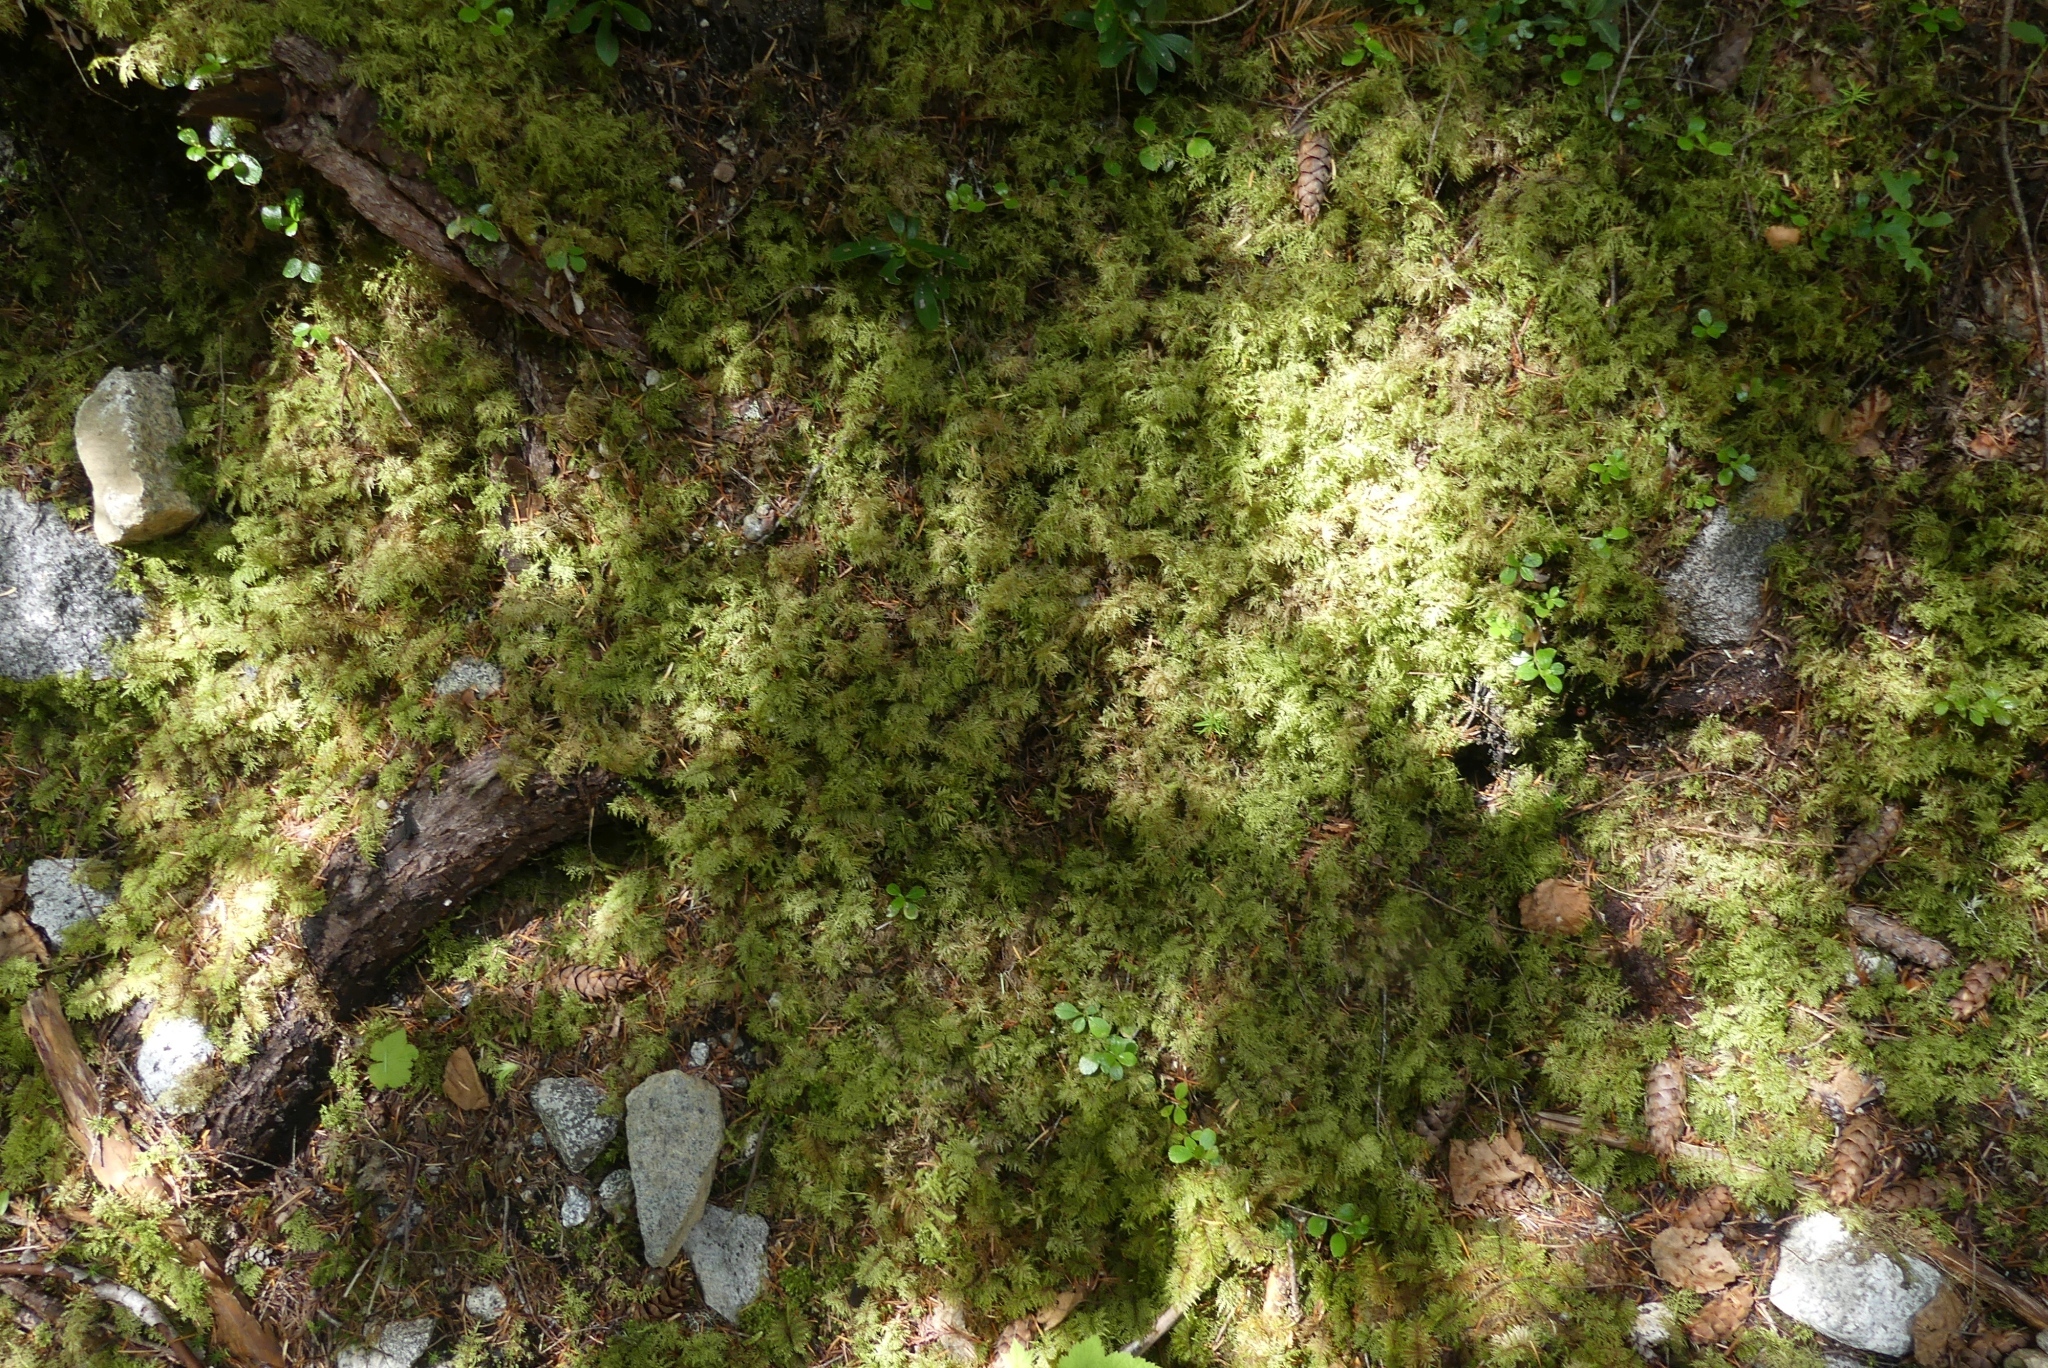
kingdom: Plantae
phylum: Bryophyta
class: Bryopsida
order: Hypnales
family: Hylocomiaceae
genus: Hylocomium
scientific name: Hylocomium splendens
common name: Stairstep moss
